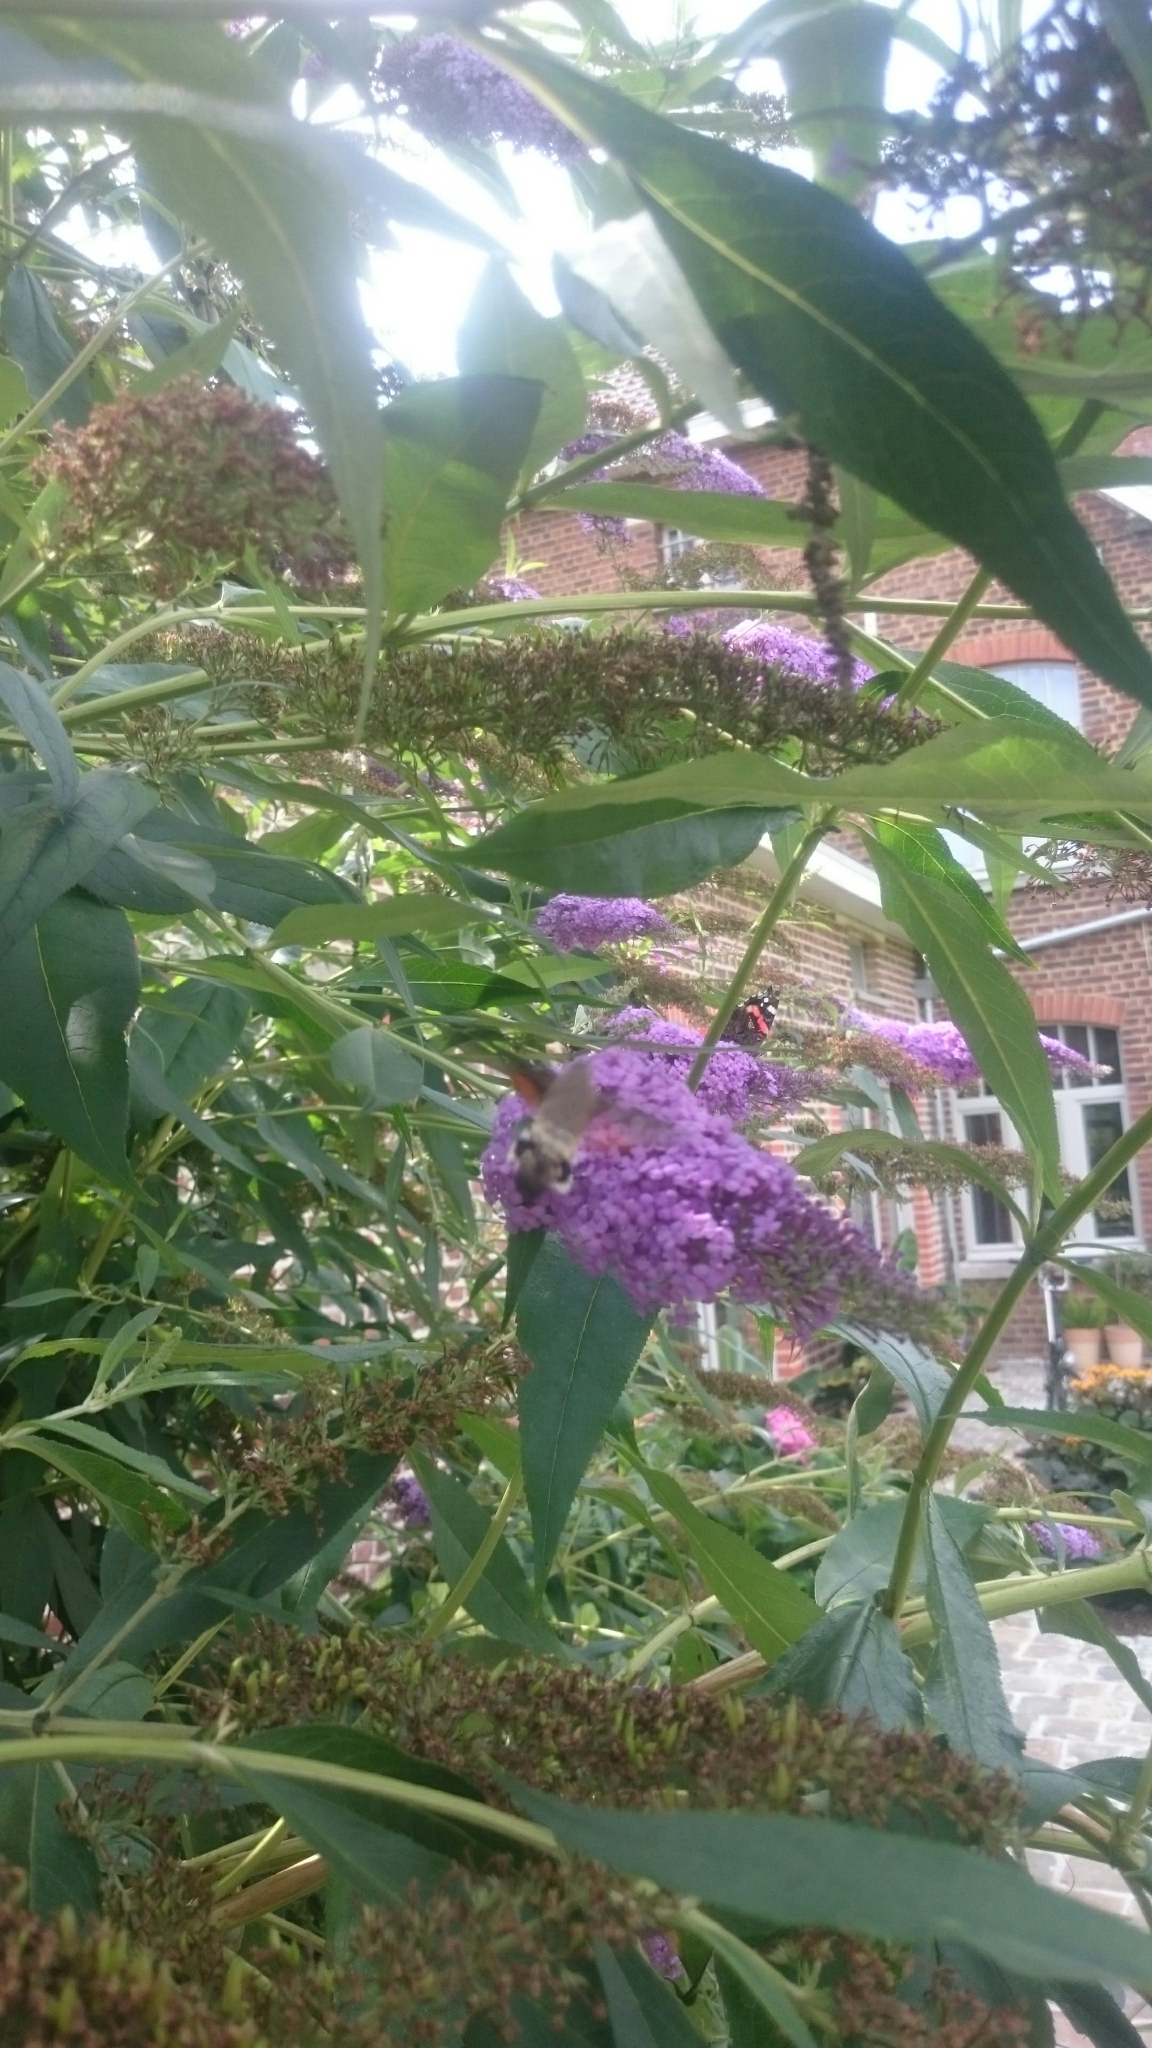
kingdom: Animalia
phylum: Arthropoda
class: Insecta
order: Lepidoptera
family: Sphingidae
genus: Macroglossum
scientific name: Macroglossum stellatarum
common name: Humming-bird hawk-moth
